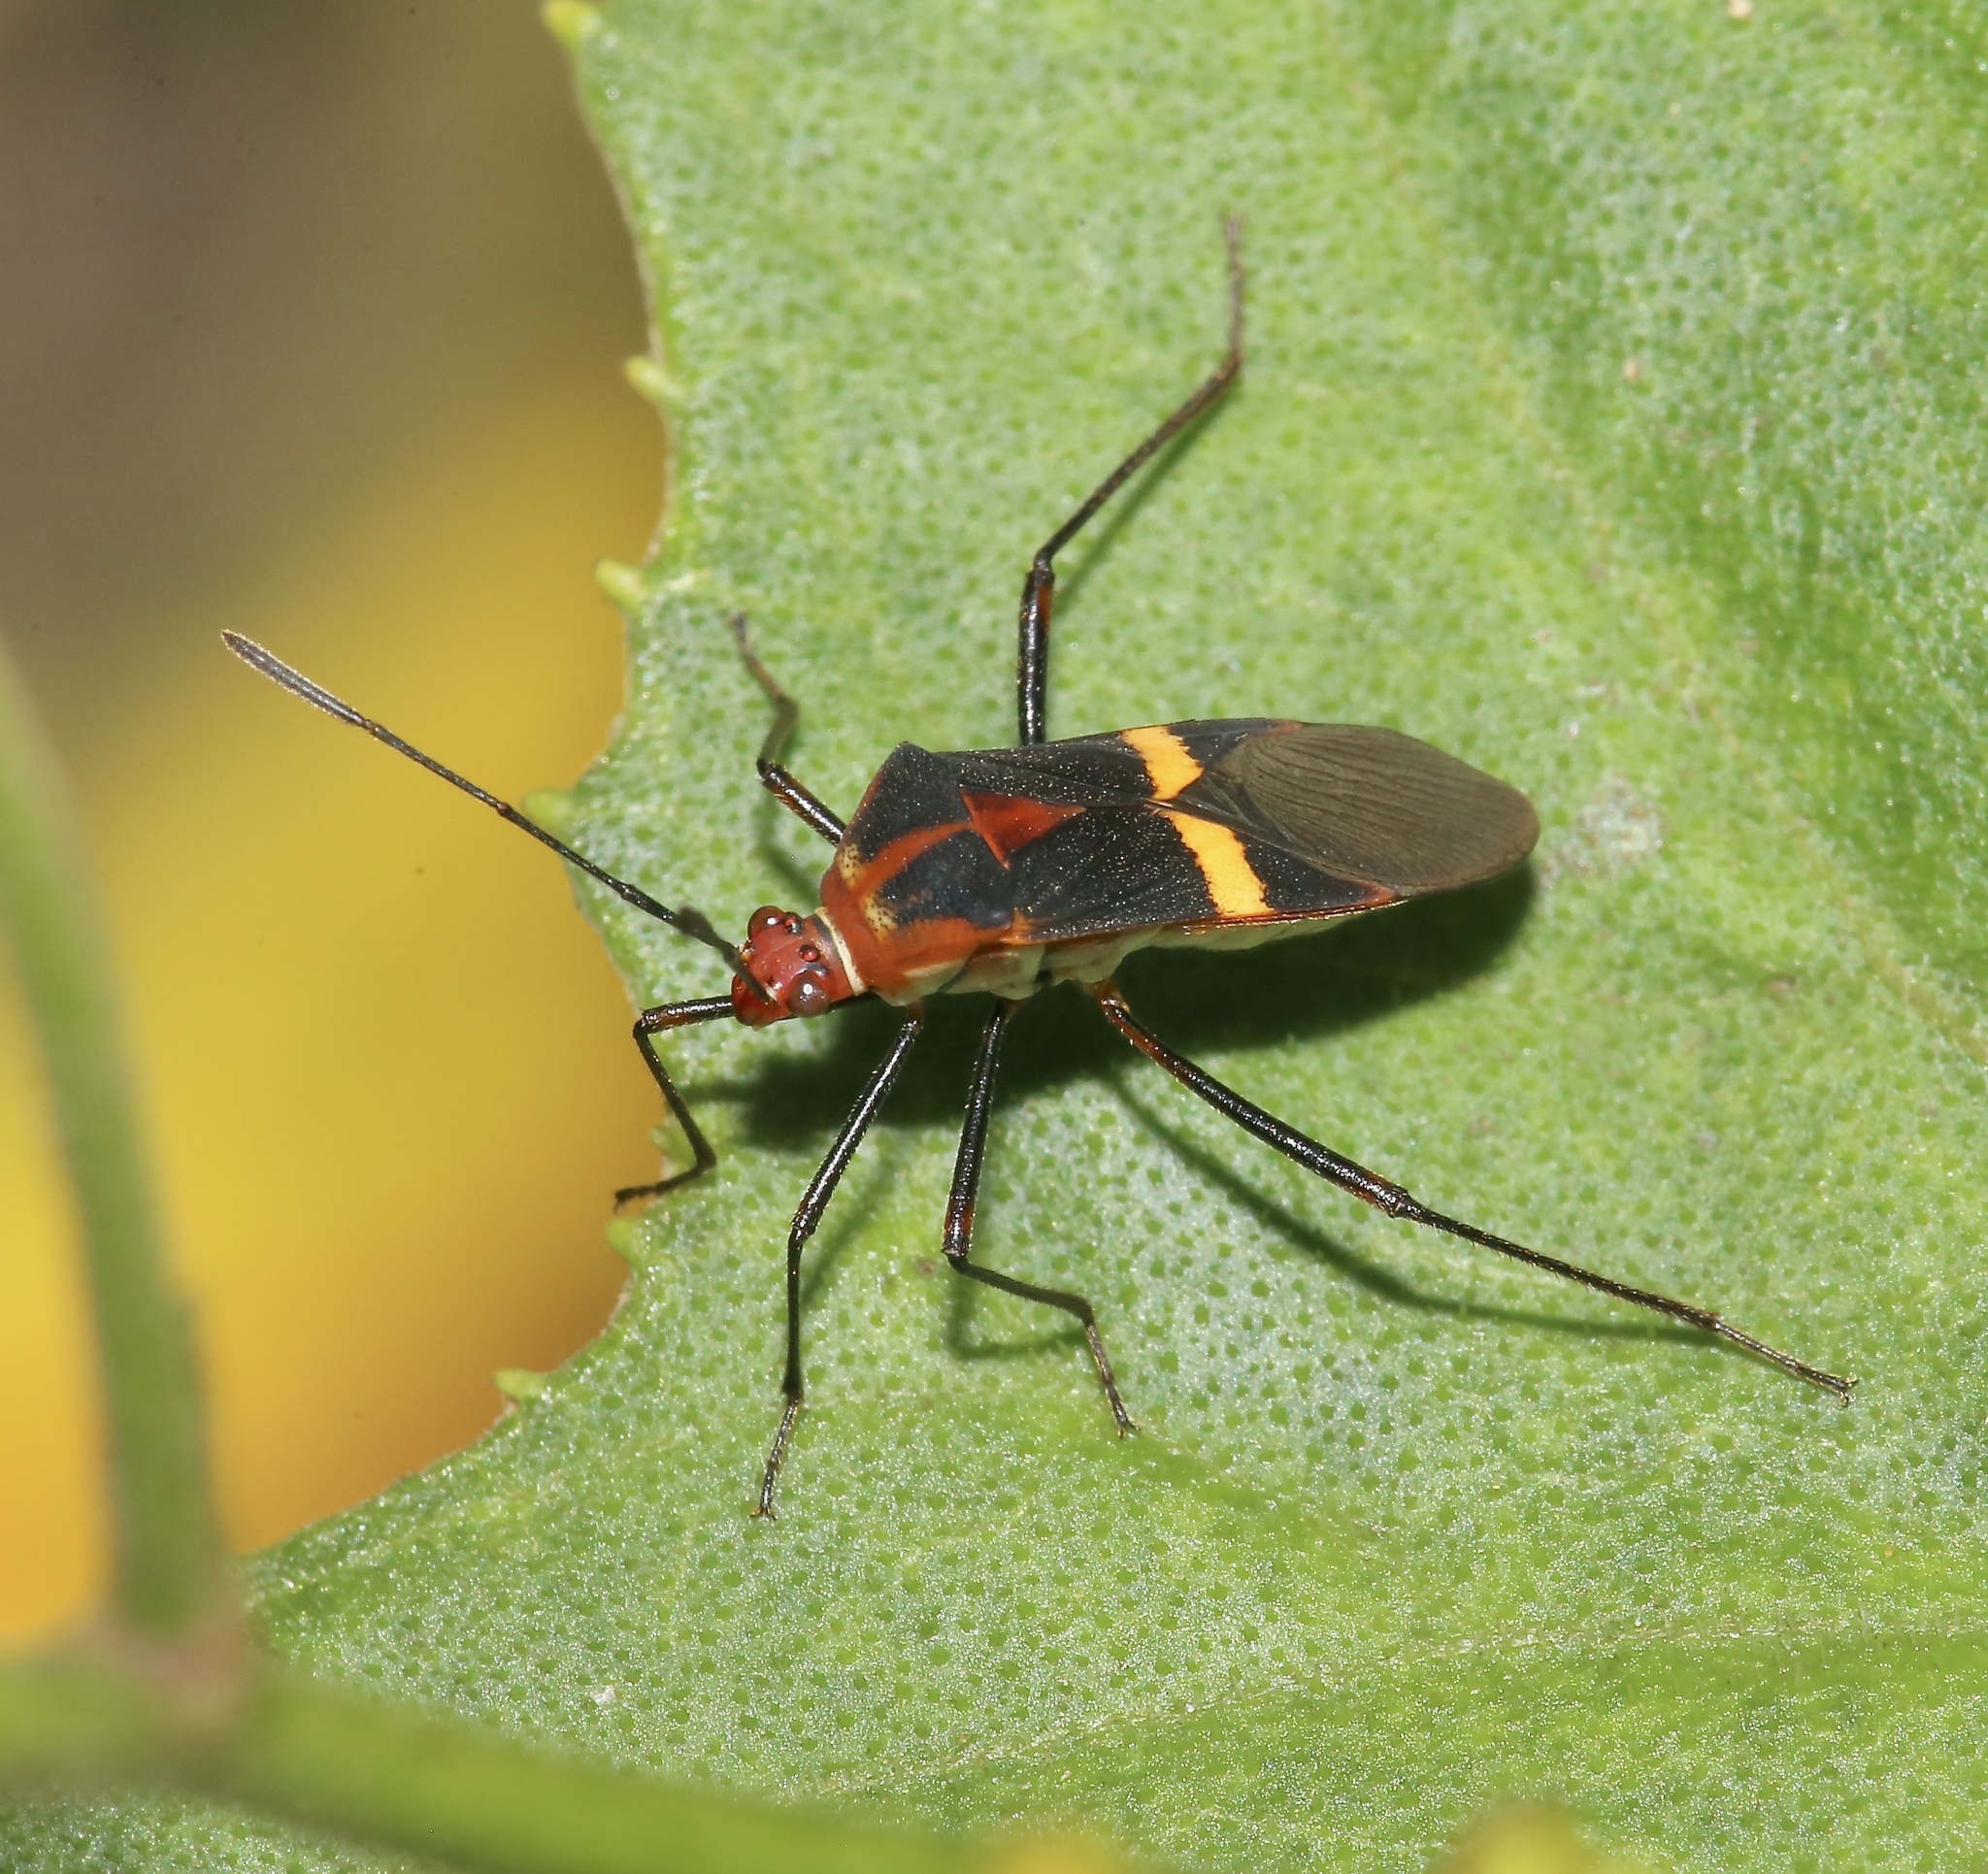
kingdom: Animalia
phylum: Arthropoda
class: Insecta
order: Hemiptera
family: Coreidae
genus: Hypselonotus
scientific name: Hypselonotus interruptus
